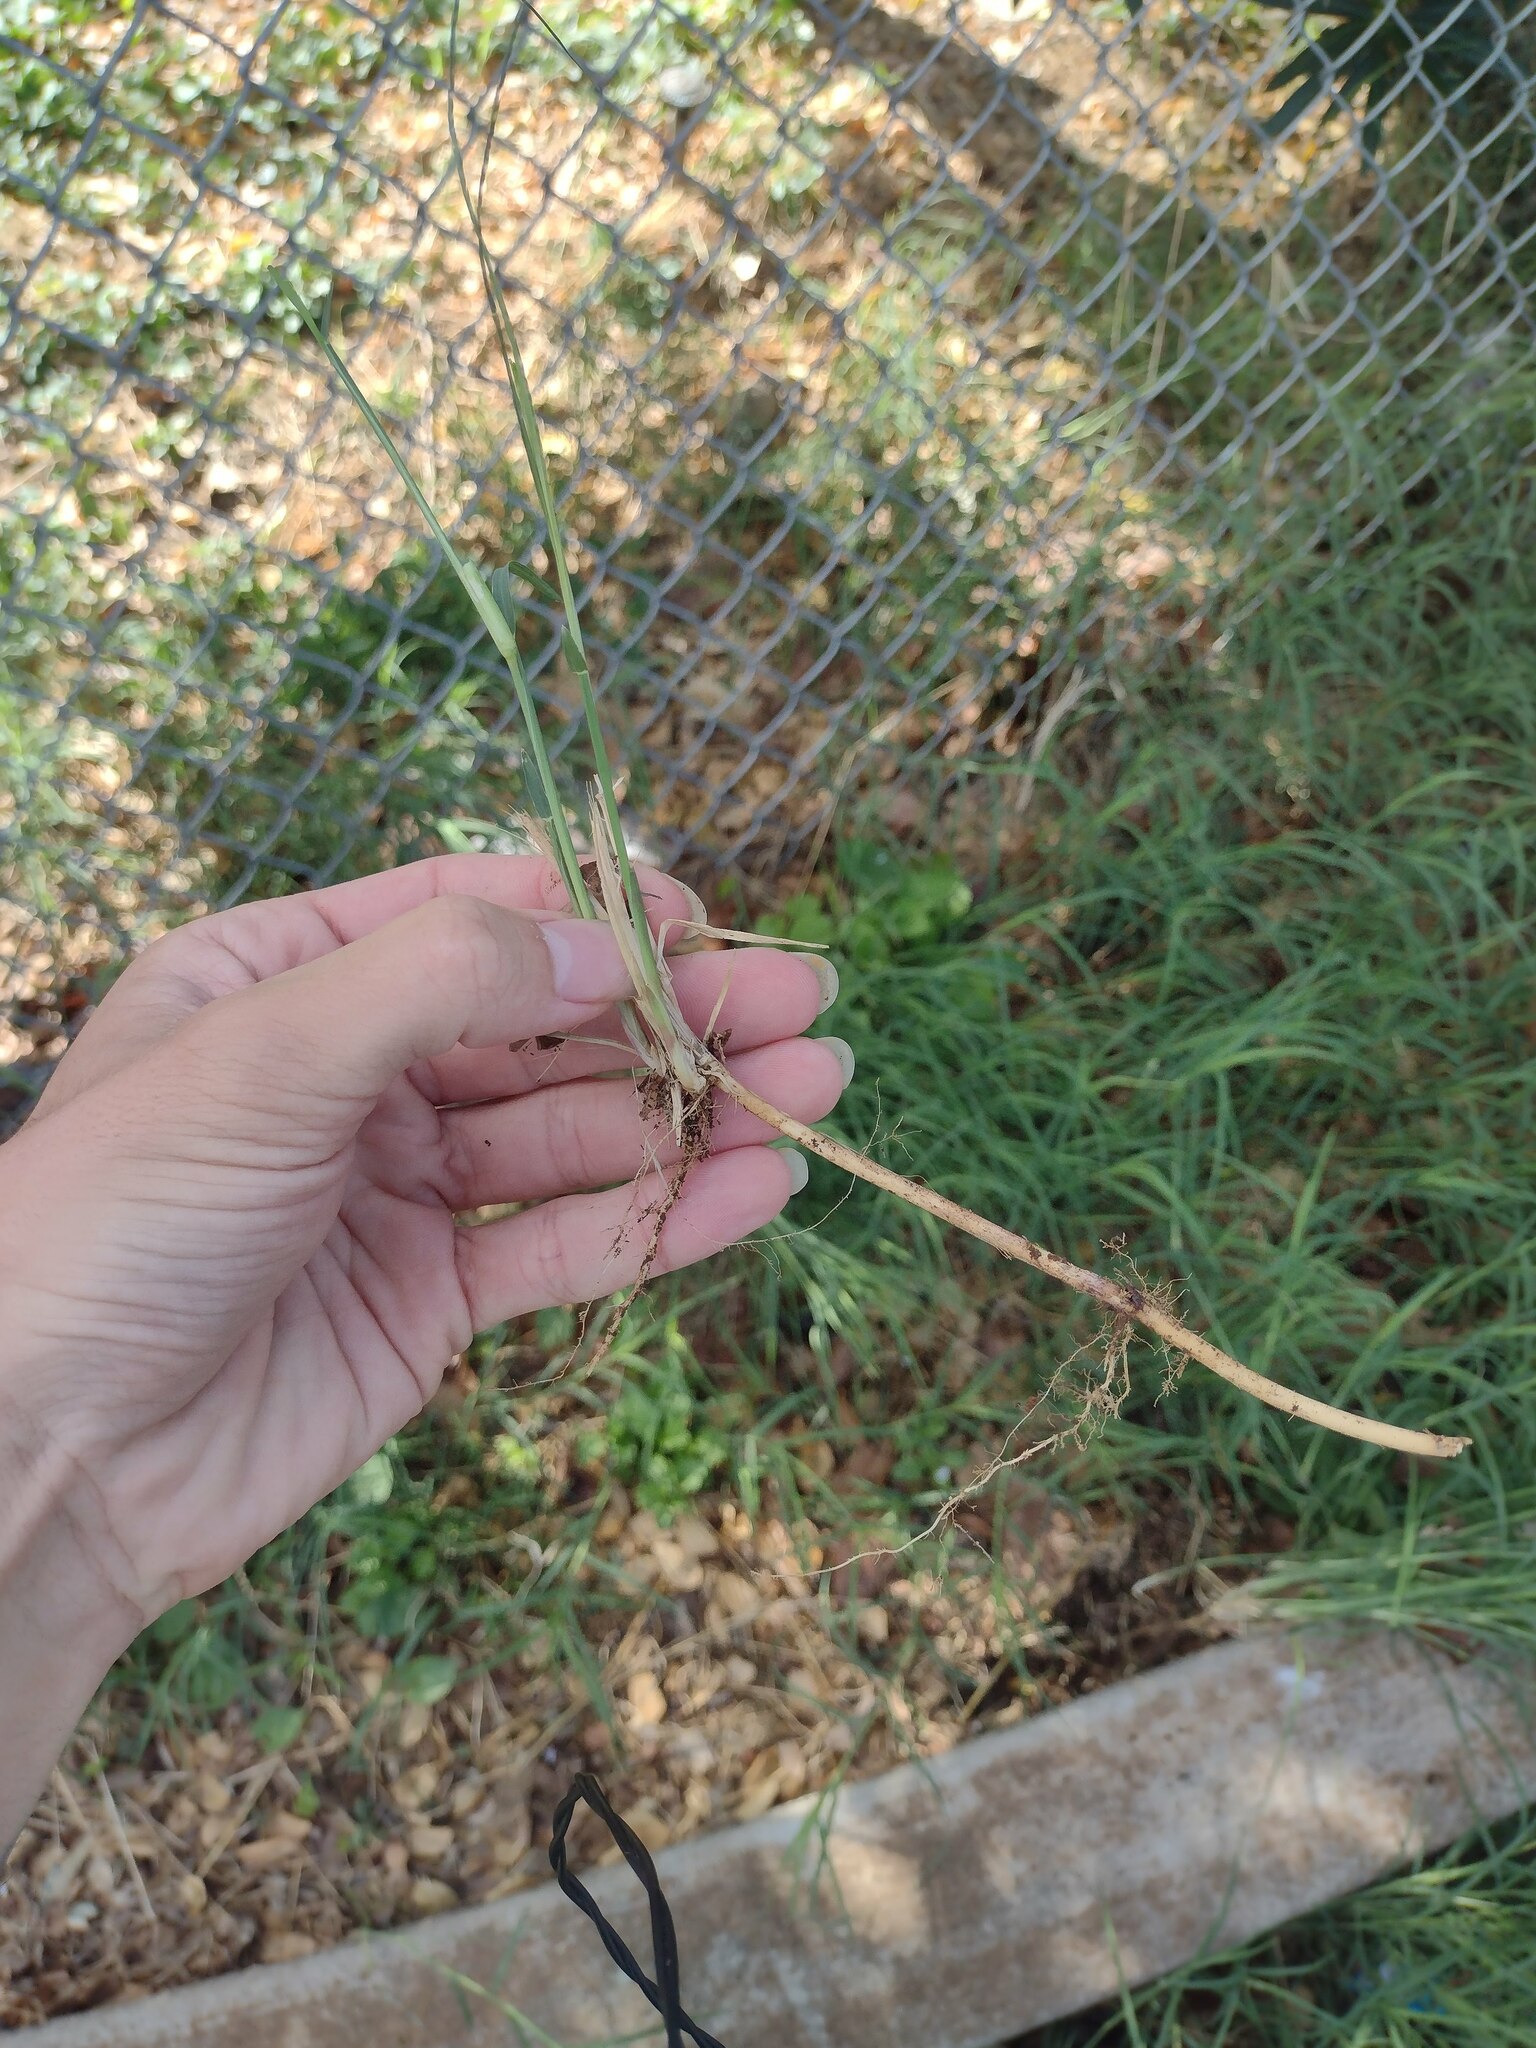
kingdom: Plantae
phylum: Tracheophyta
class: Liliopsida
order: Poales
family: Poaceae
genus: Cynodon
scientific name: Cynodon nlemfuensis
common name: African bermudagrass
